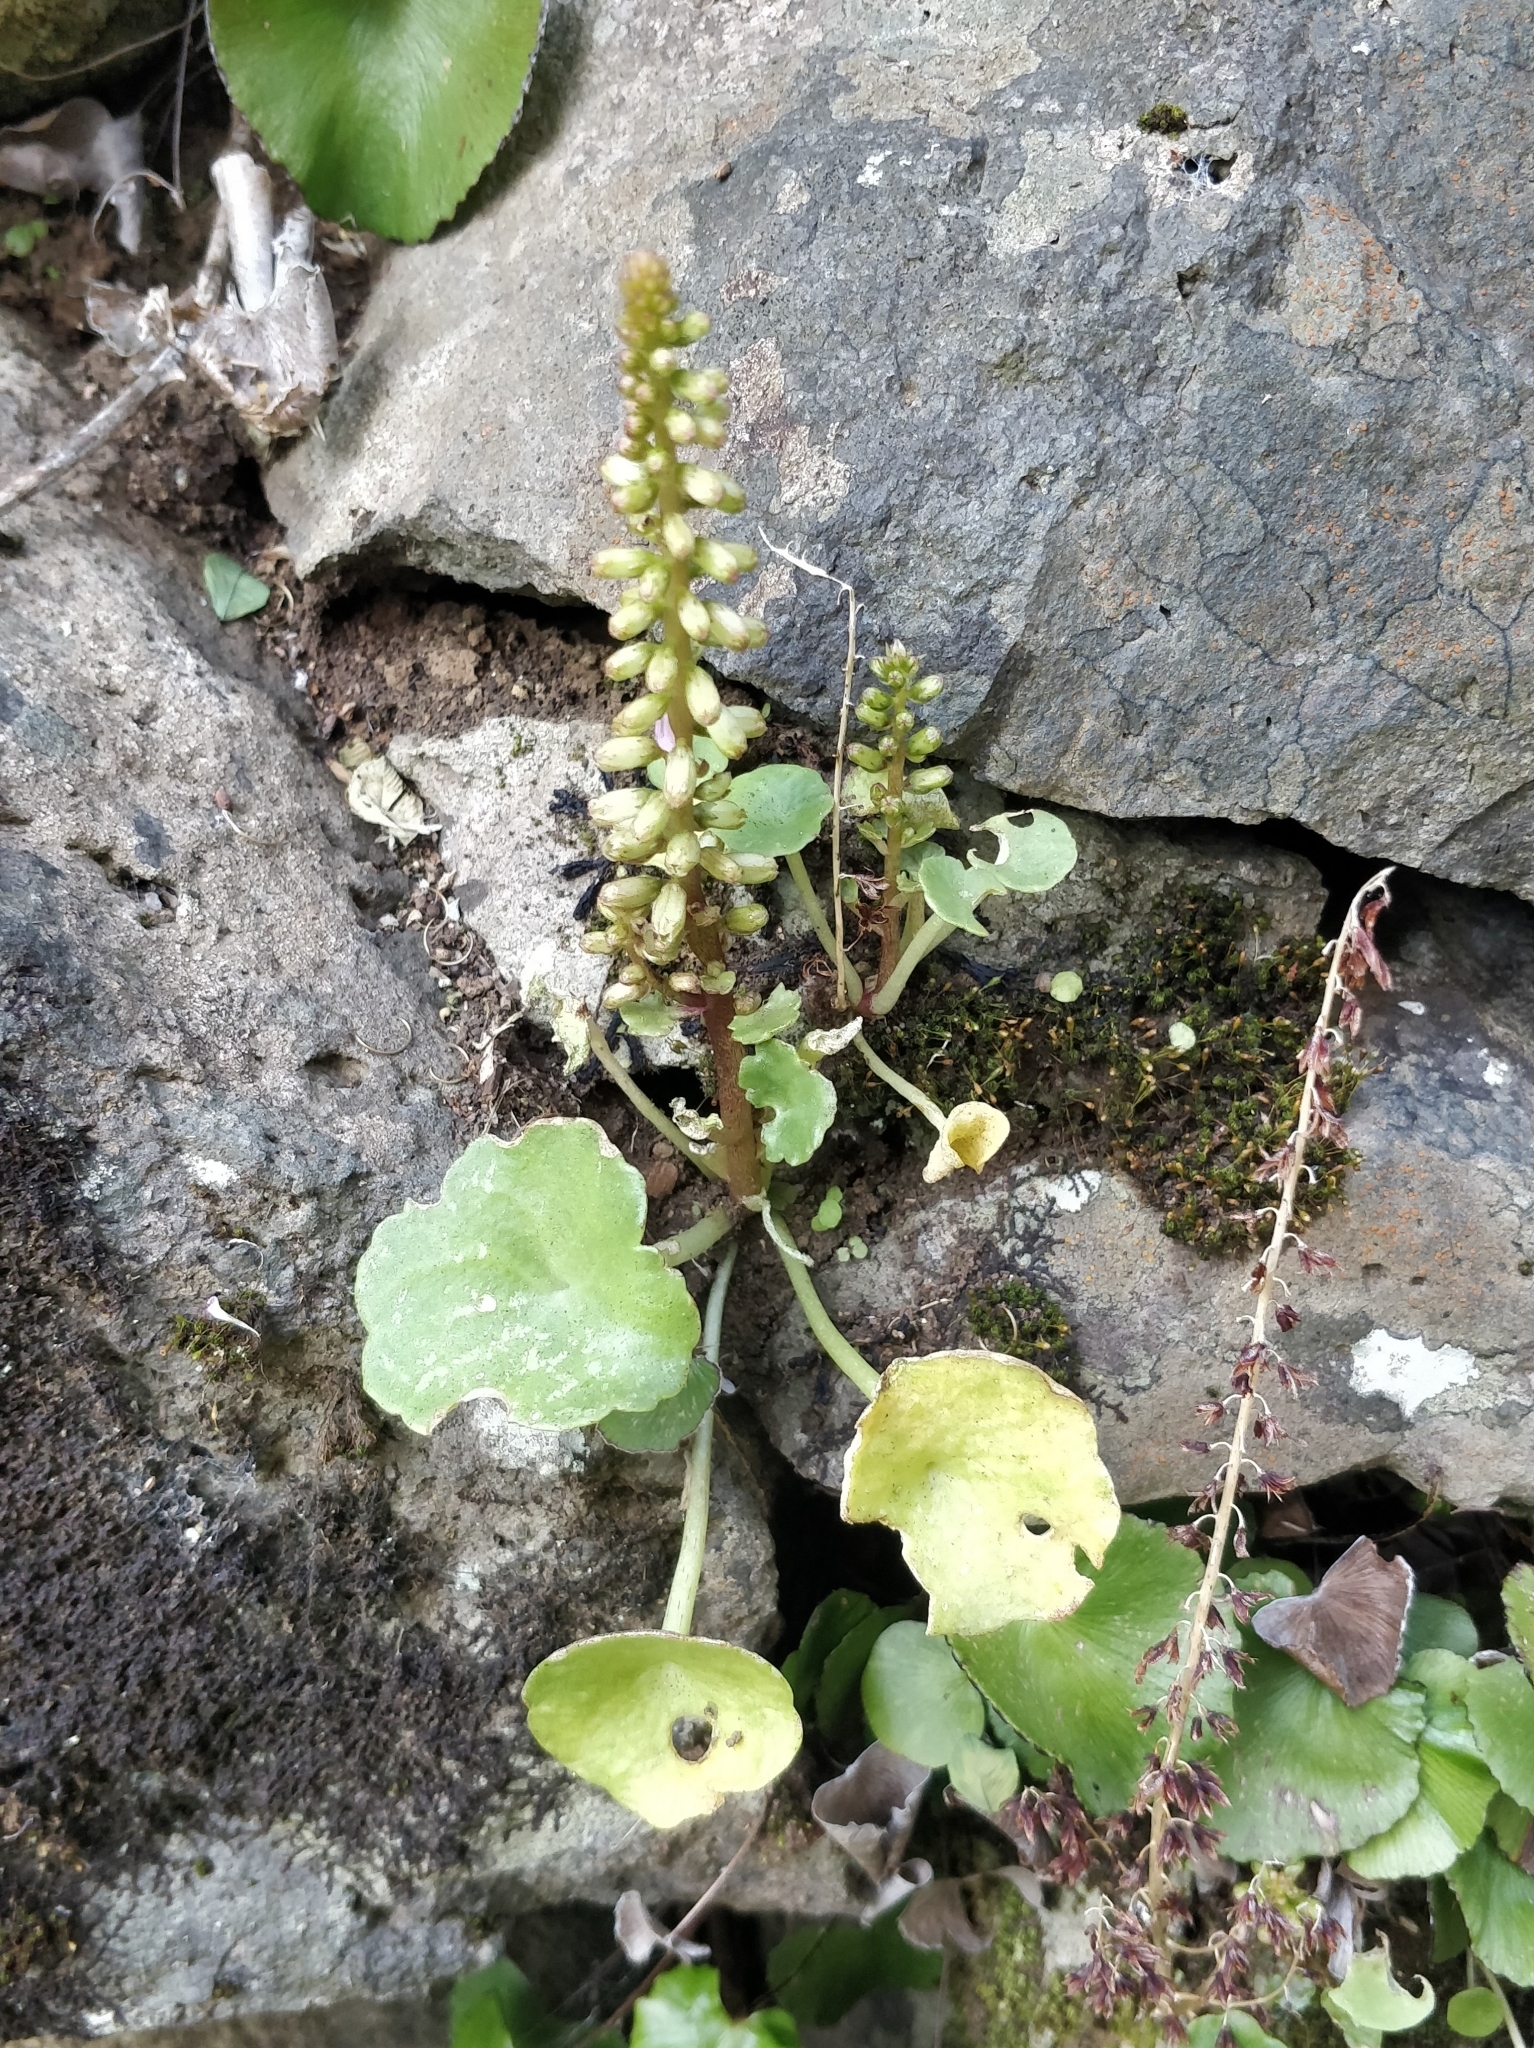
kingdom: Plantae
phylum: Tracheophyta
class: Magnoliopsida
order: Saxifragales
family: Crassulaceae
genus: Umbilicus
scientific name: Umbilicus rupestris
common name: Navelwort
